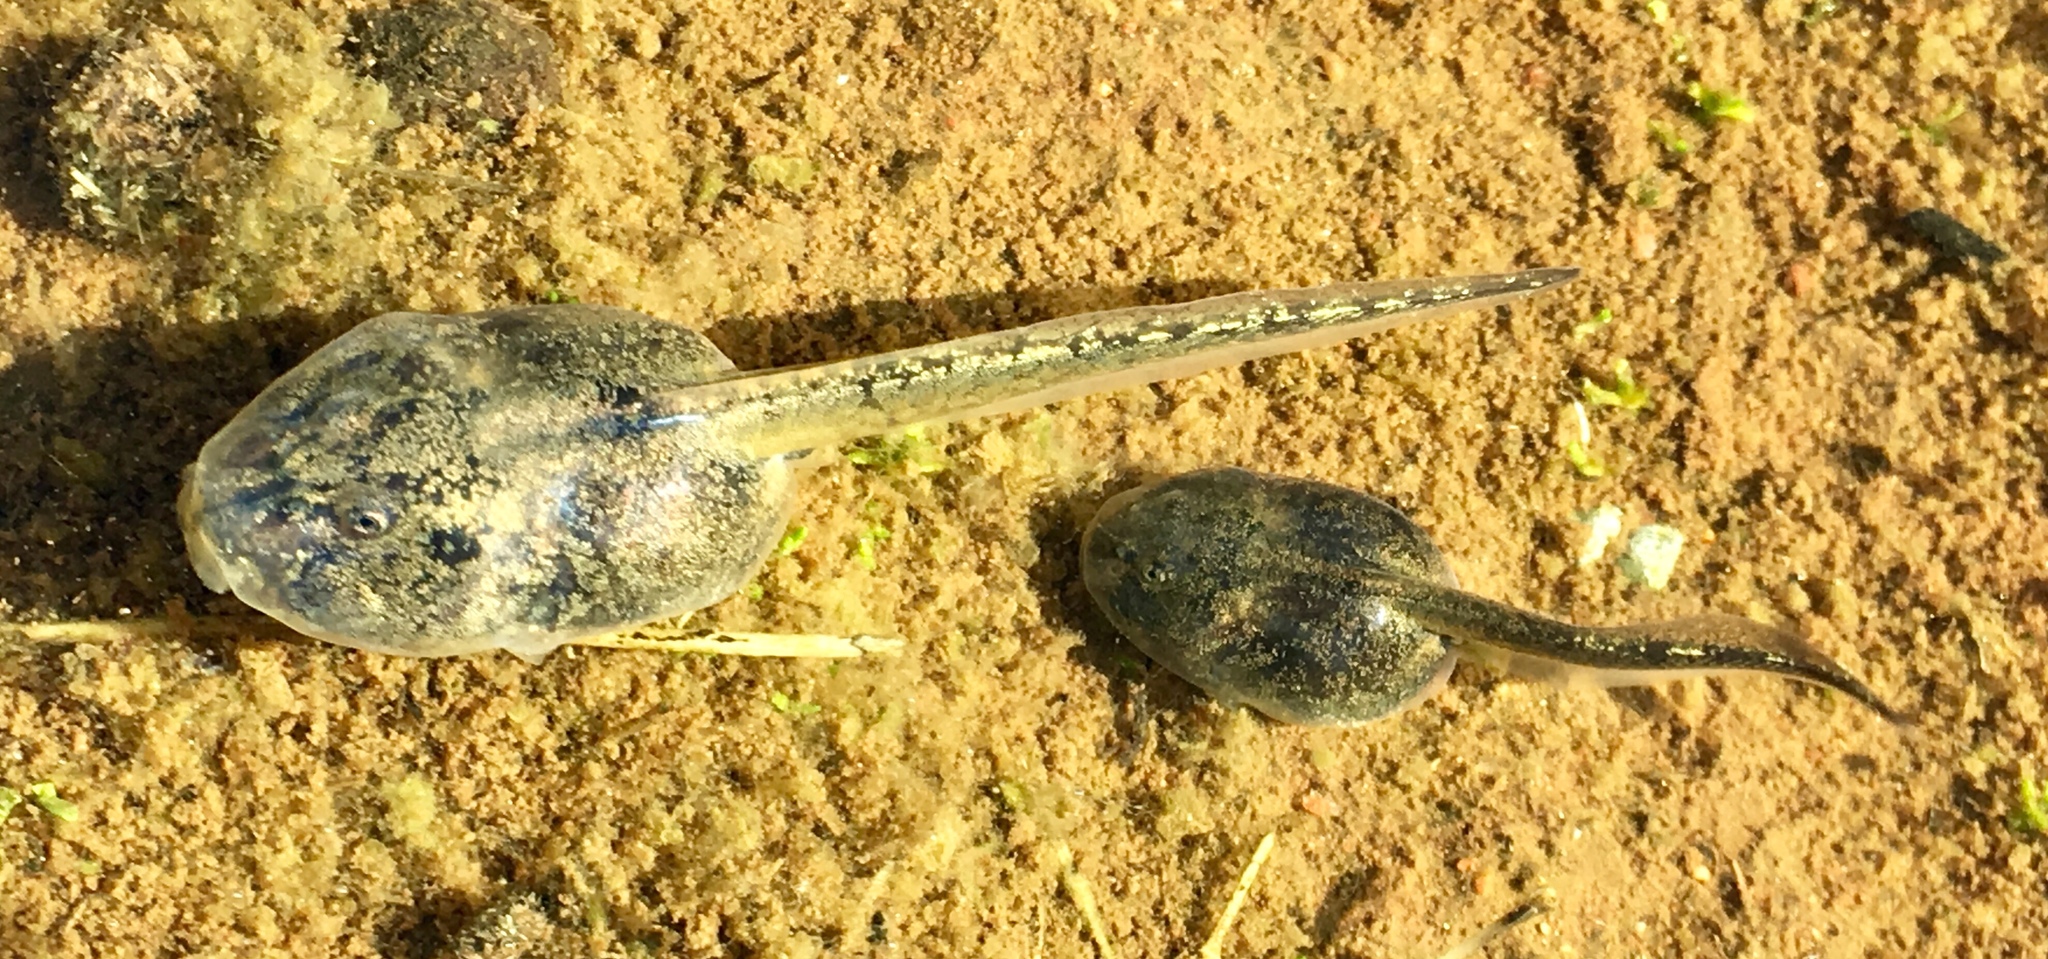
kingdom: Animalia
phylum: Chordata
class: Amphibia
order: Anura
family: Scaphiopodidae
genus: Spea
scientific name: Spea hammondii
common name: Western spadefoot toad
